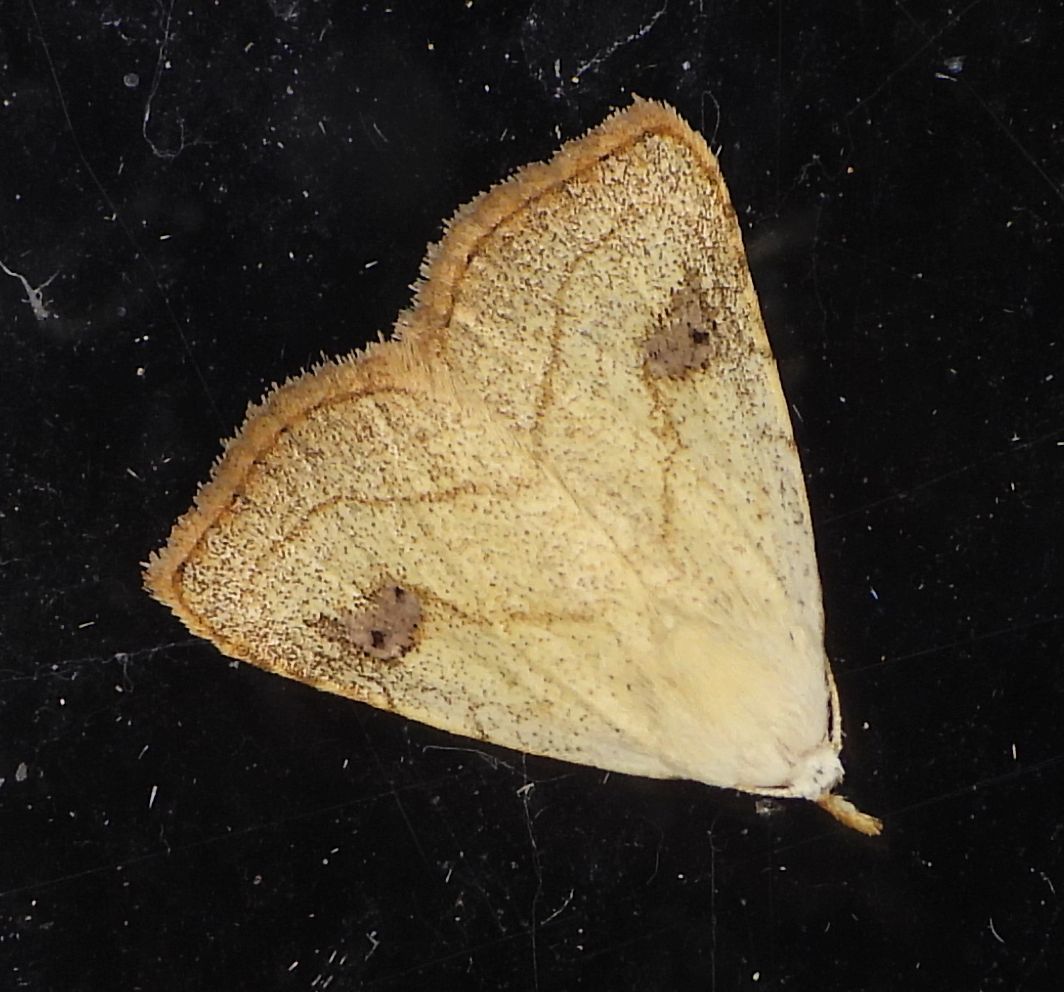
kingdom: Animalia
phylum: Arthropoda
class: Insecta
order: Lepidoptera
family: Erebidae
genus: Rivula
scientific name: Rivula propinqualis
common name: Spotted grass moth
